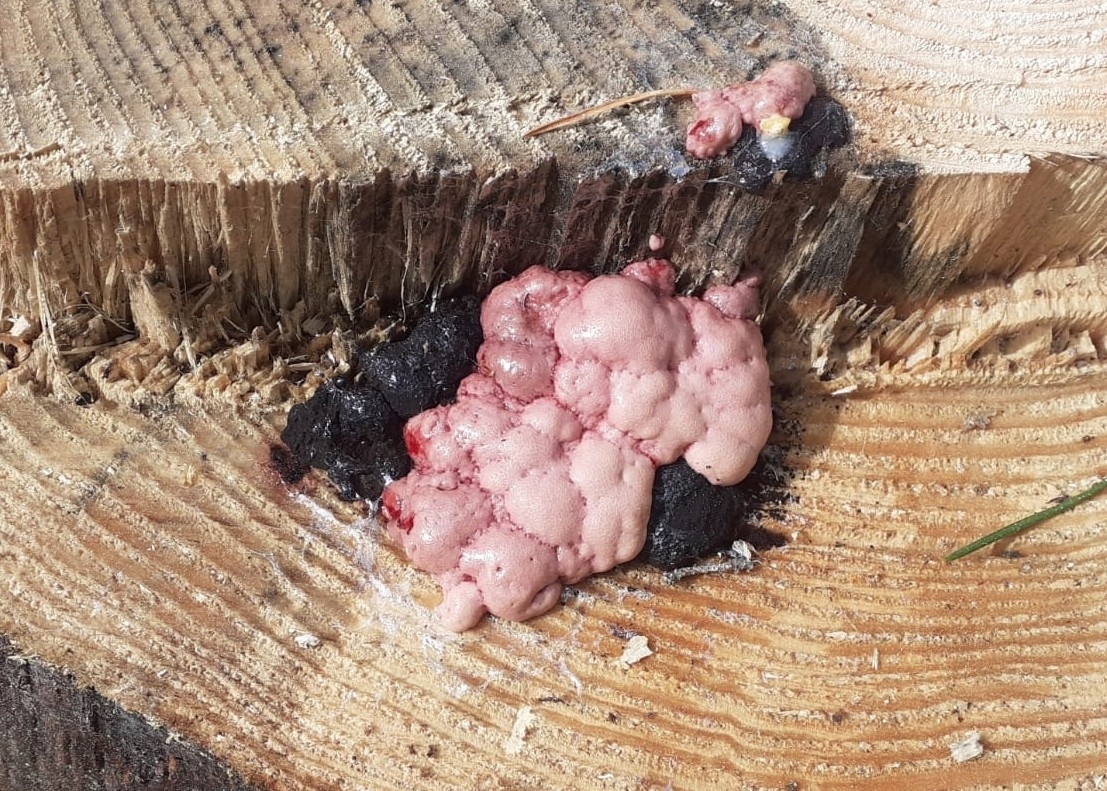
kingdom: Protozoa
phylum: Mycetozoa
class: Myxomycetes
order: Stemonitidales
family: Stemonitidaceae
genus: Brefeldia
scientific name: Brefeldia maxima
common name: Tapioca slime mold
